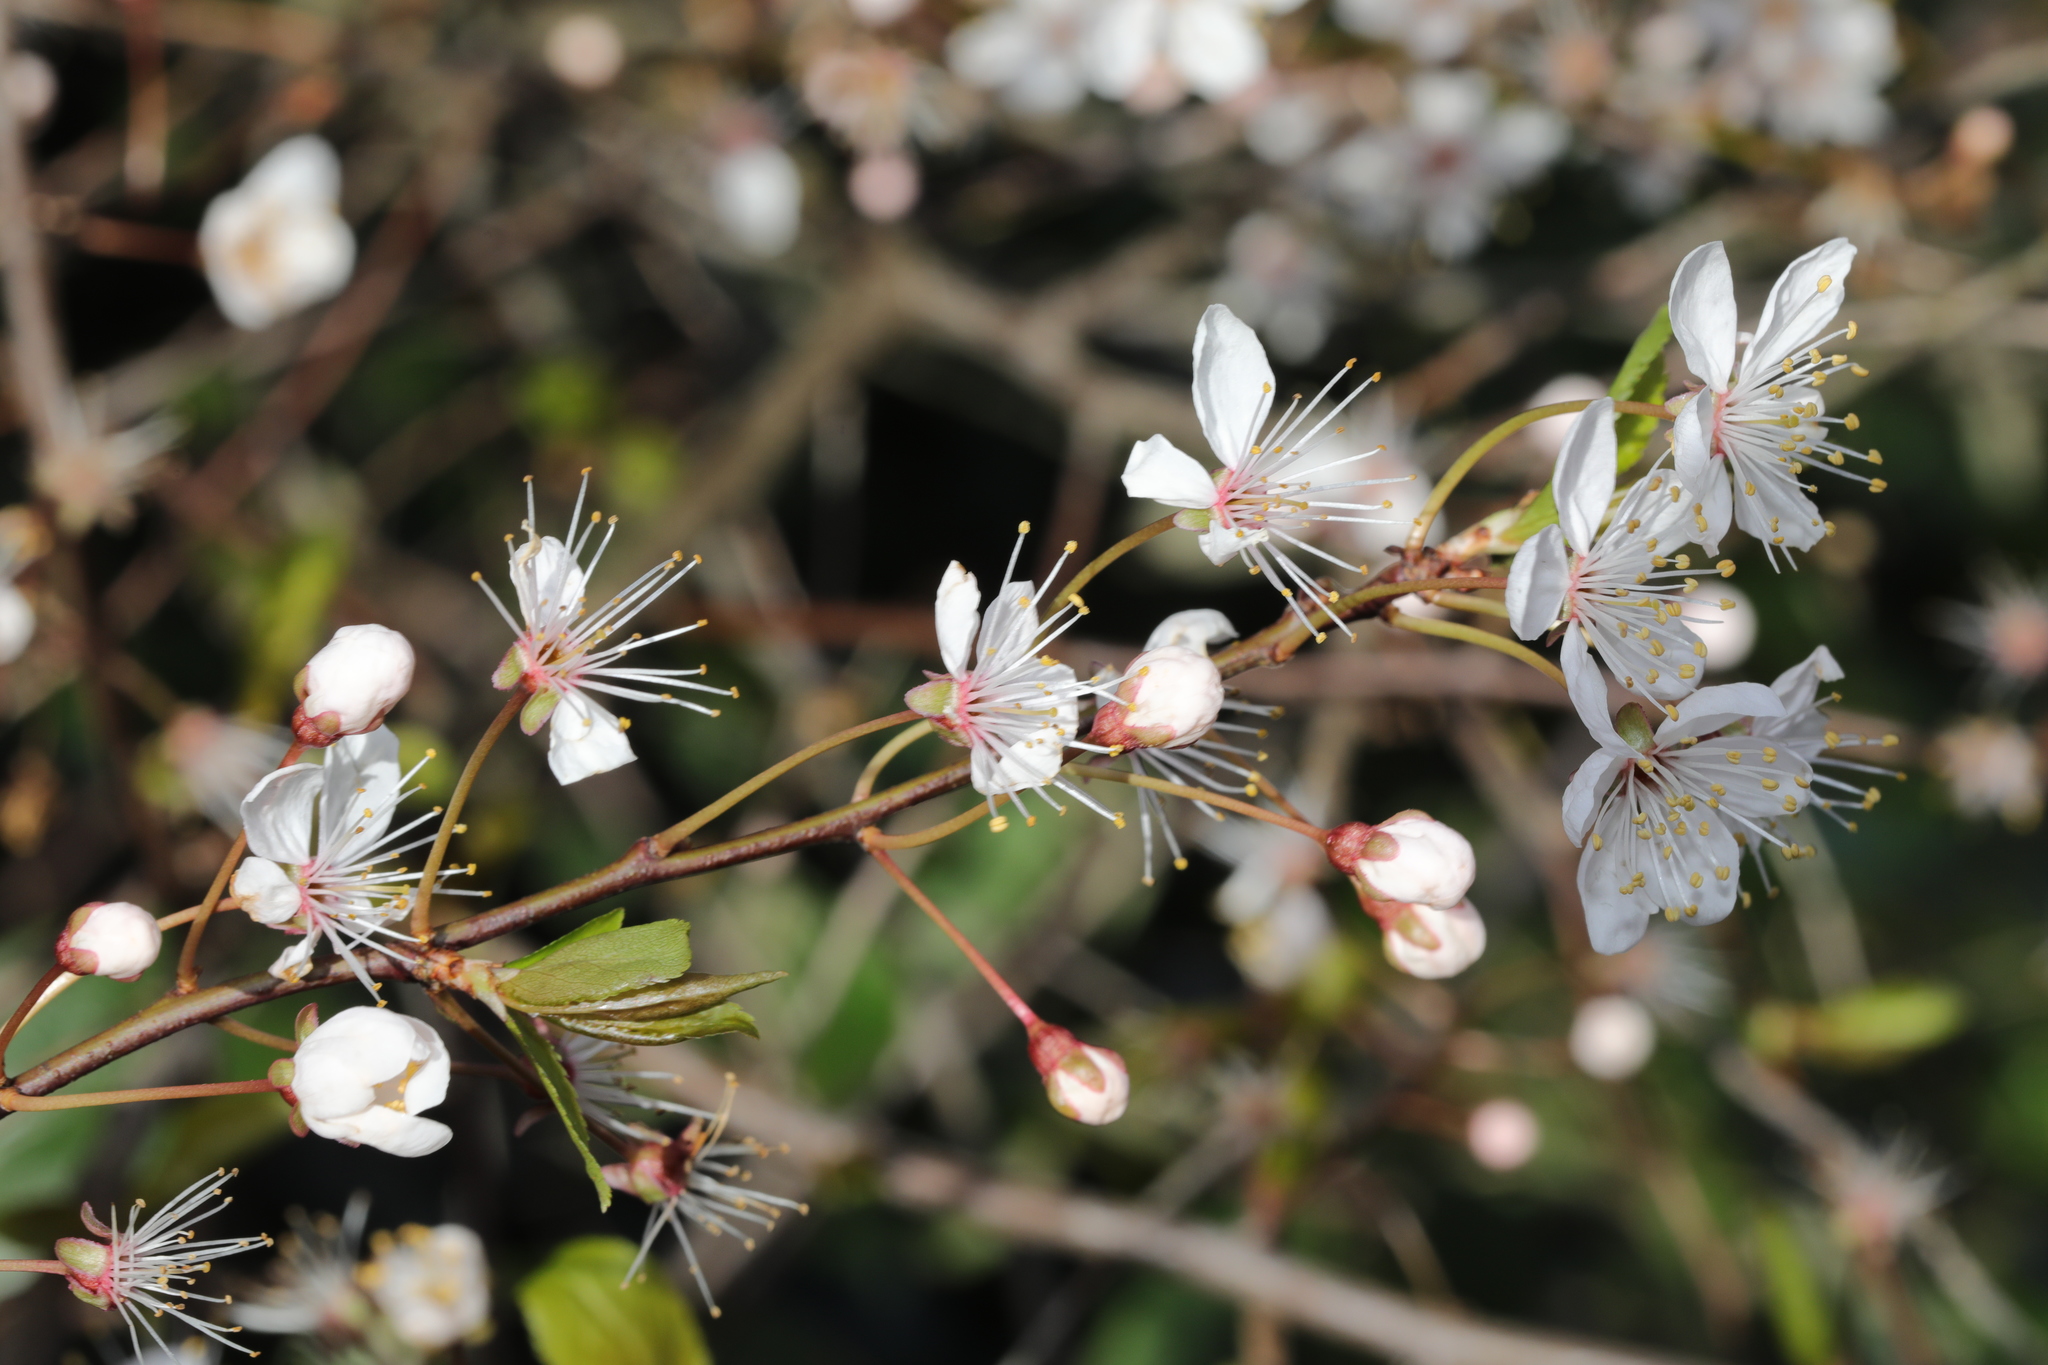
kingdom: Plantae
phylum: Tracheophyta
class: Magnoliopsida
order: Rosales
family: Rosaceae
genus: Prunus
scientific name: Prunus cerasifera
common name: Cherry plum
